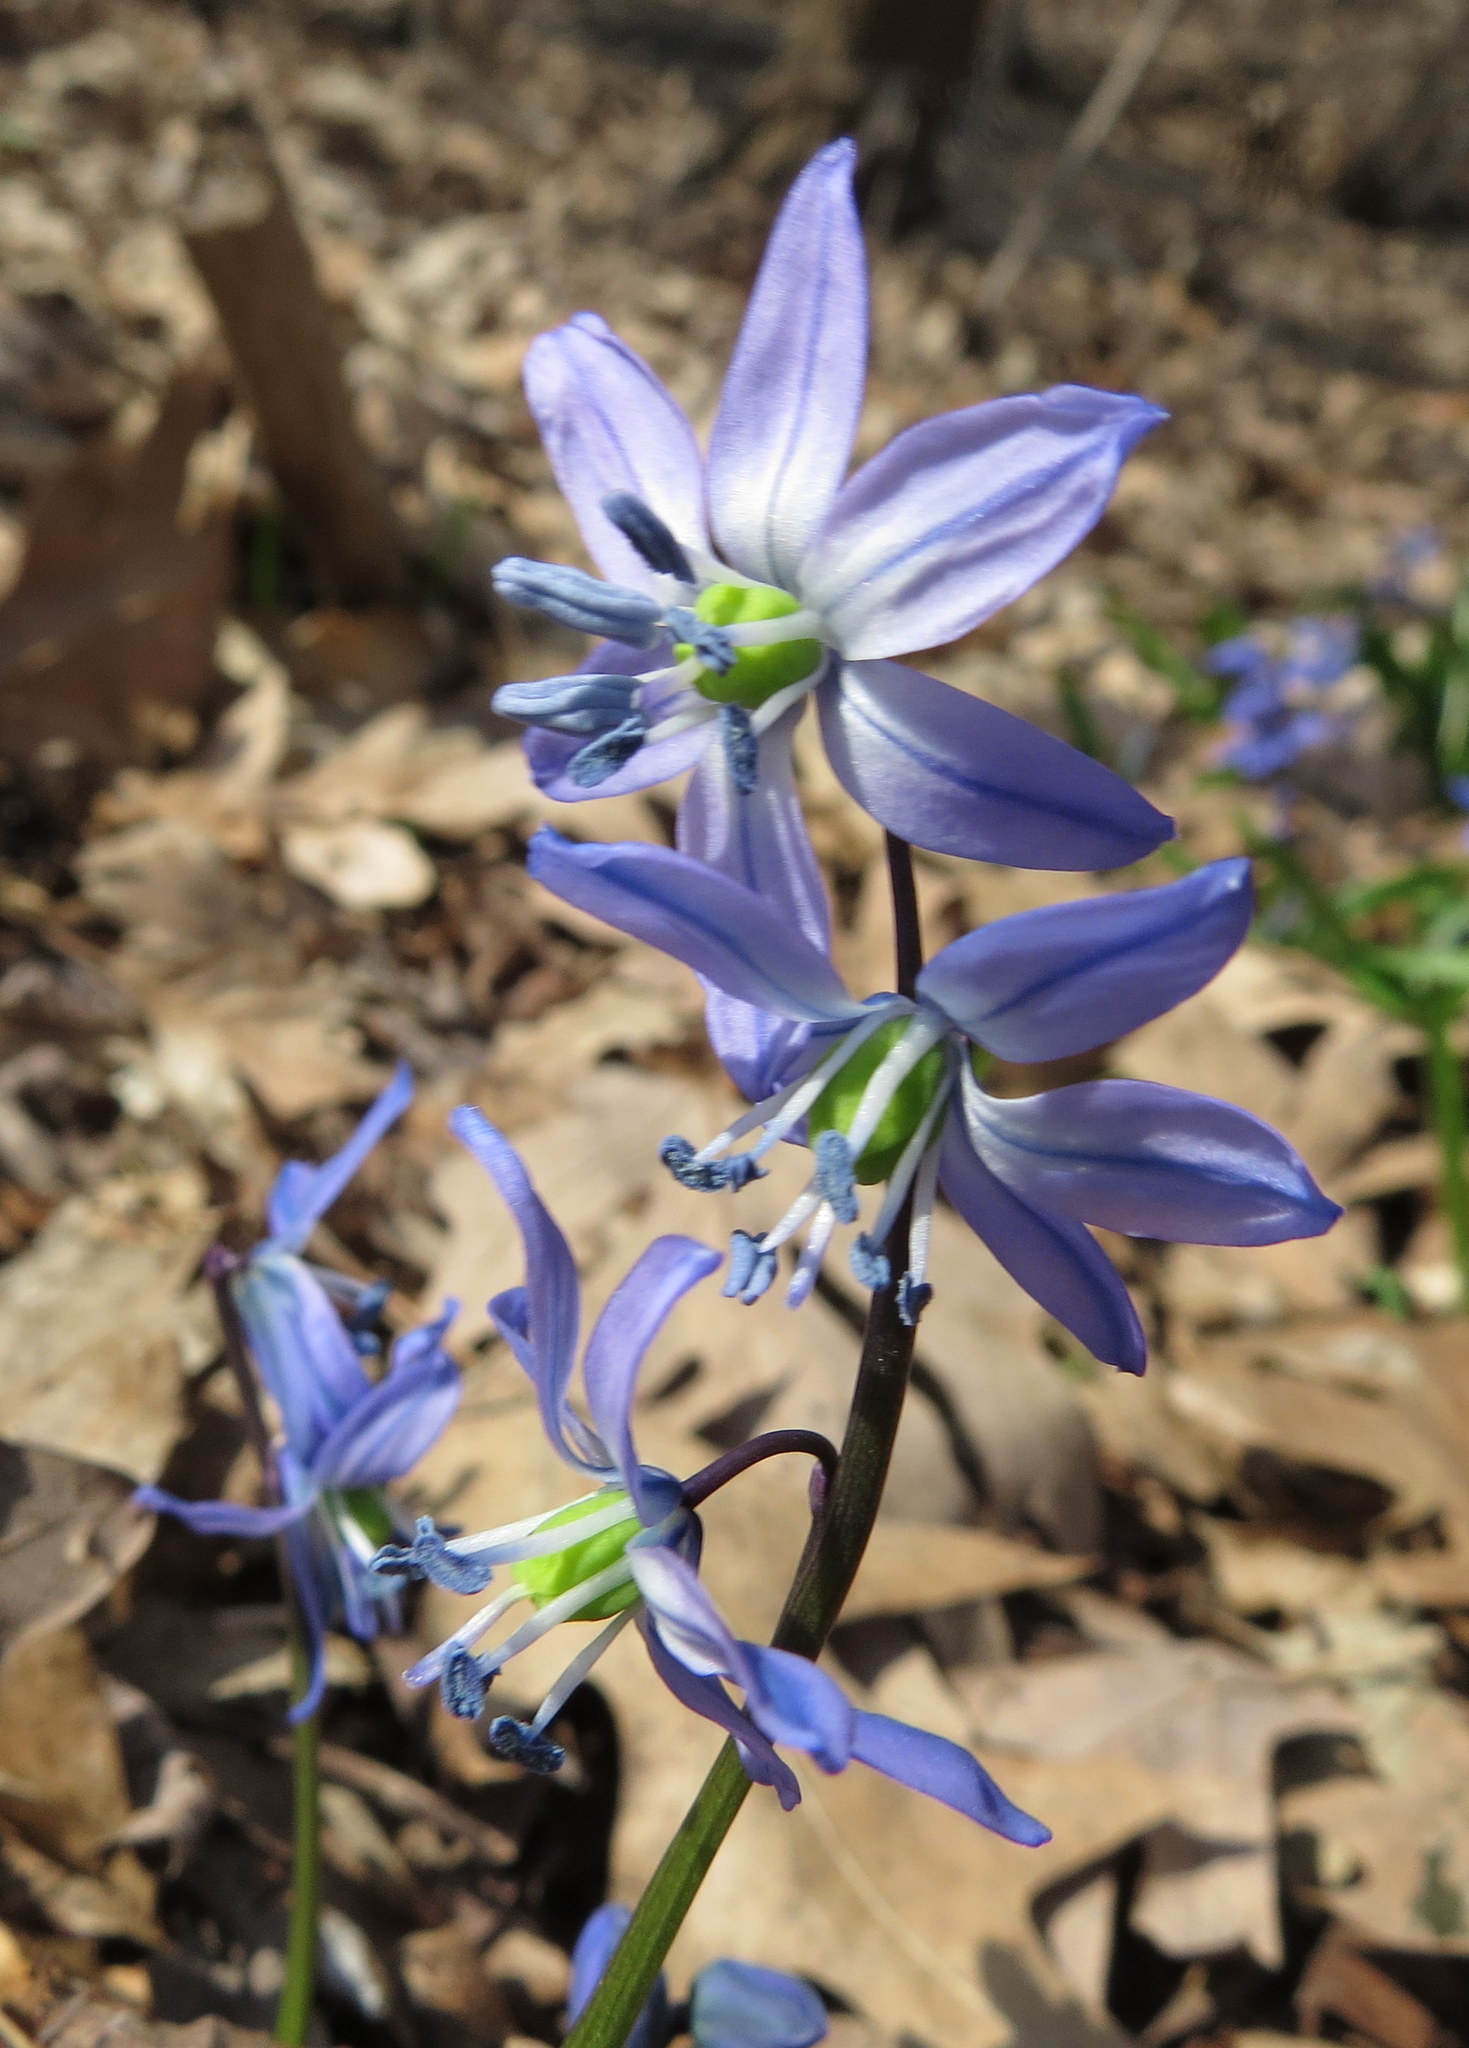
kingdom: Plantae
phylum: Tracheophyta
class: Liliopsida
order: Asparagales
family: Asparagaceae
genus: Scilla
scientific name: Scilla siberica
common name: Siberian squill
